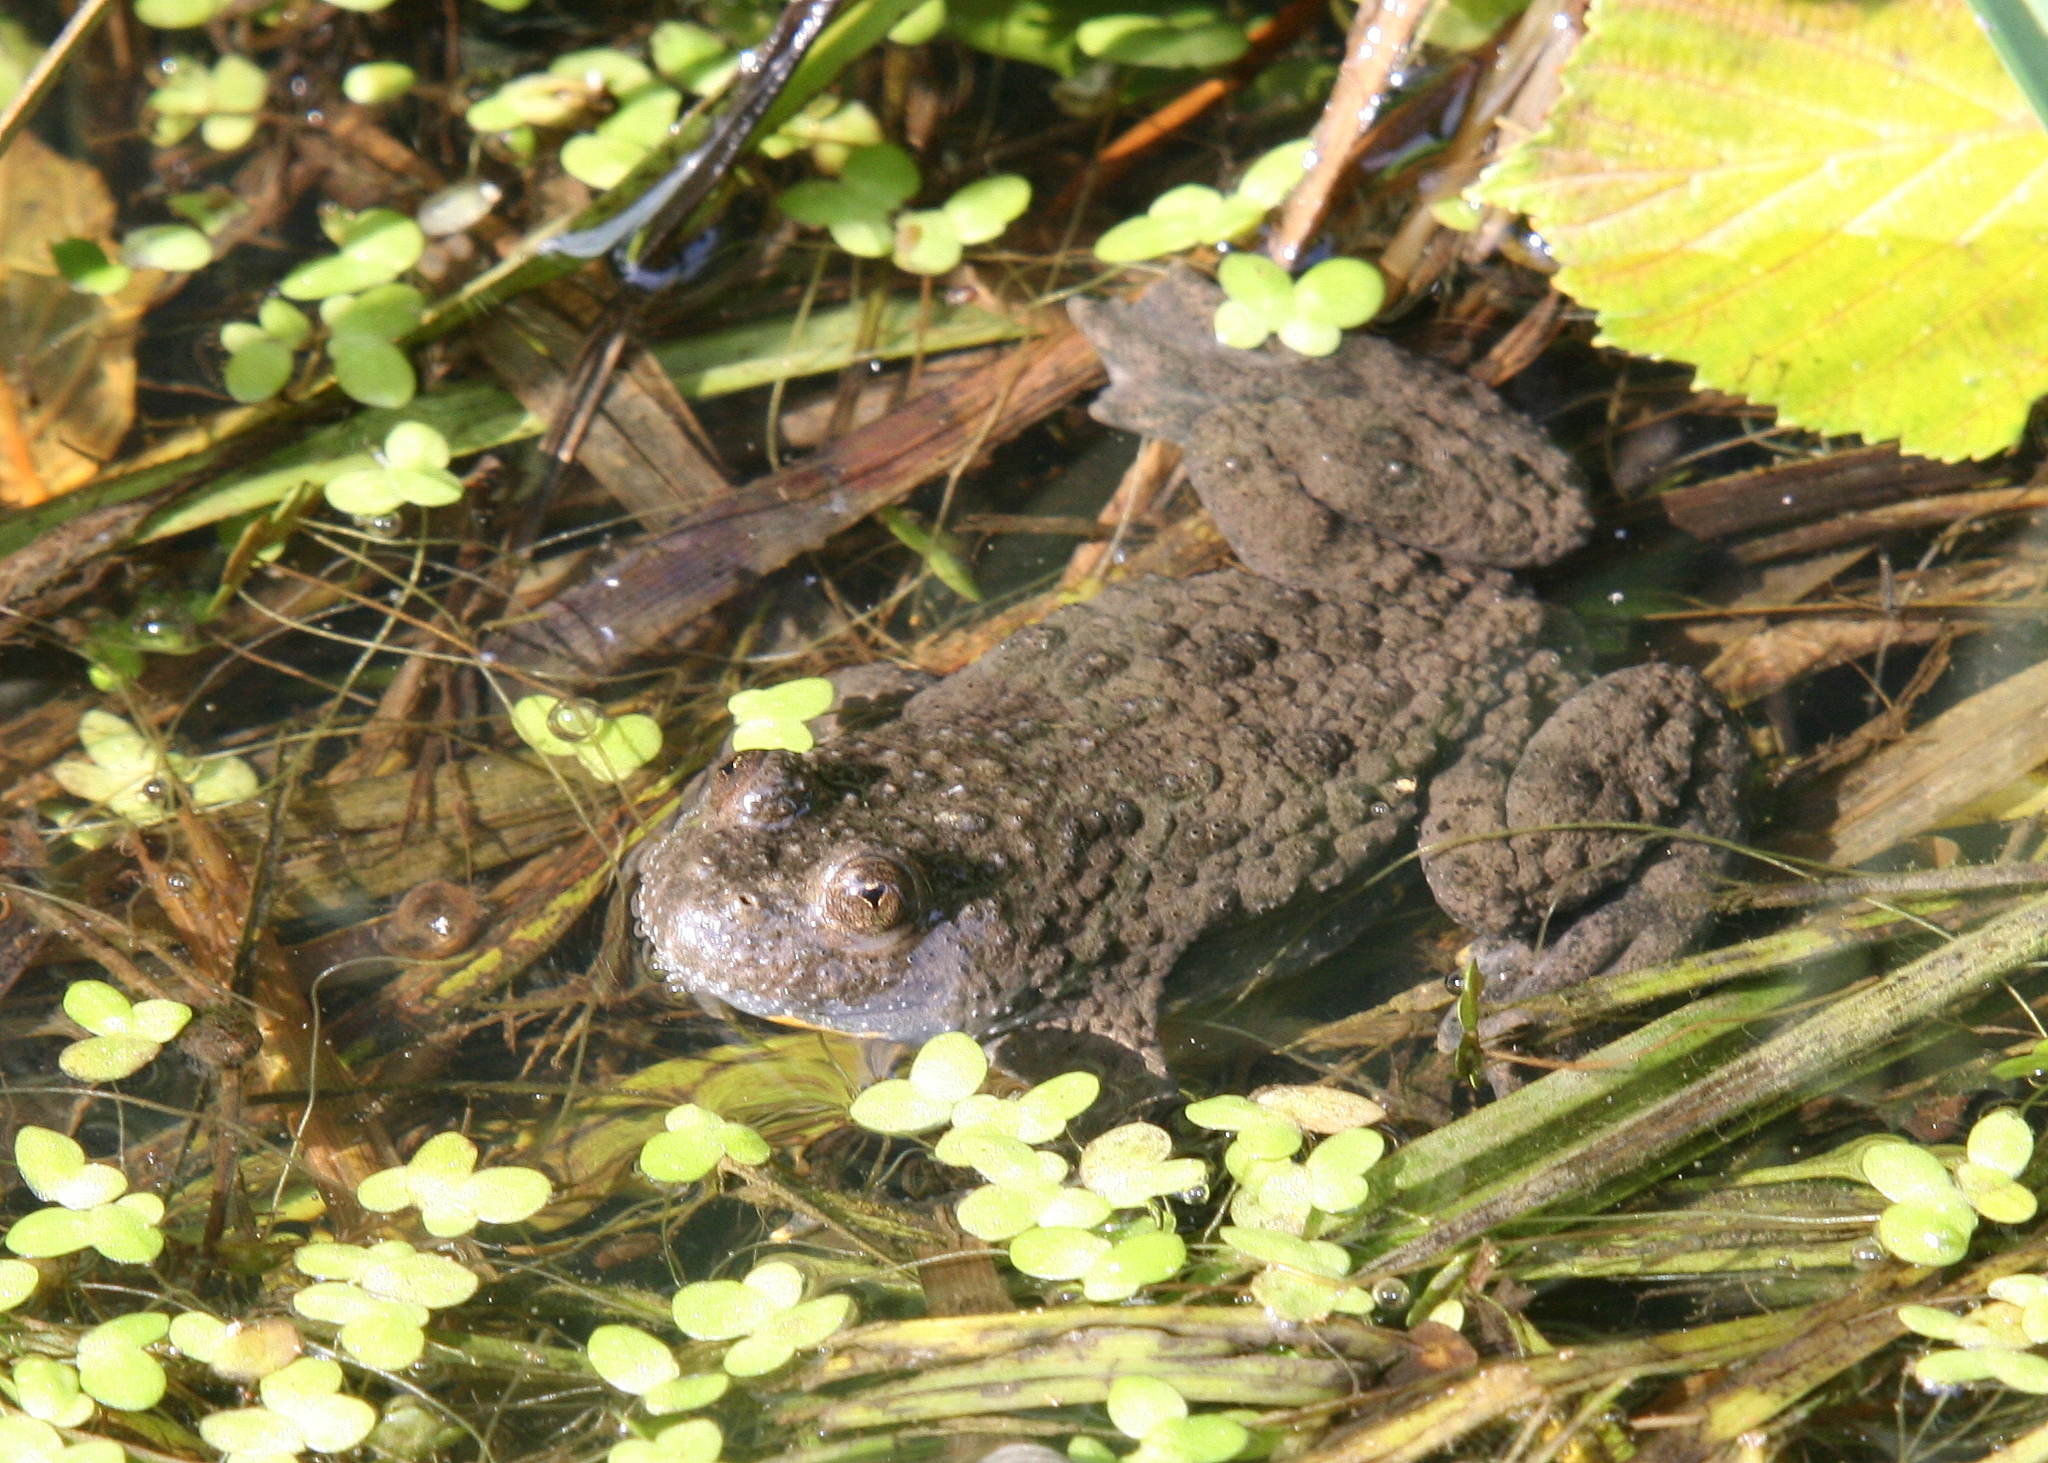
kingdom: Animalia
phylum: Chordata
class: Amphibia
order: Anura
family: Bombinatoridae
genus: Bombina
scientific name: Bombina variegata
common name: Yellow-bellied toad
